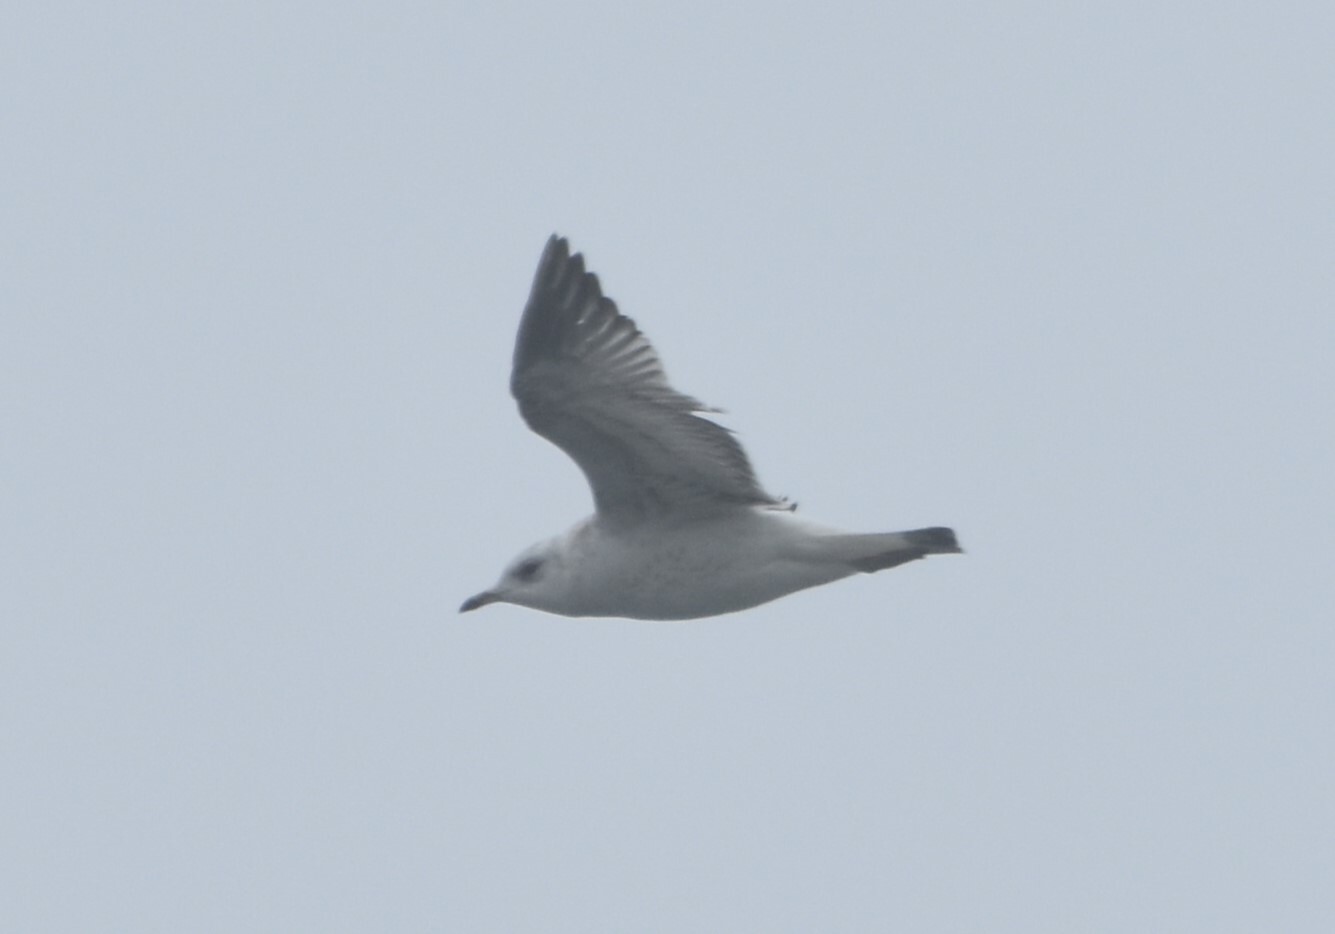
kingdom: Animalia
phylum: Chordata
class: Aves
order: Charadriiformes
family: Laridae
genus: Larus
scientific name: Larus canus
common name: Mew gull
